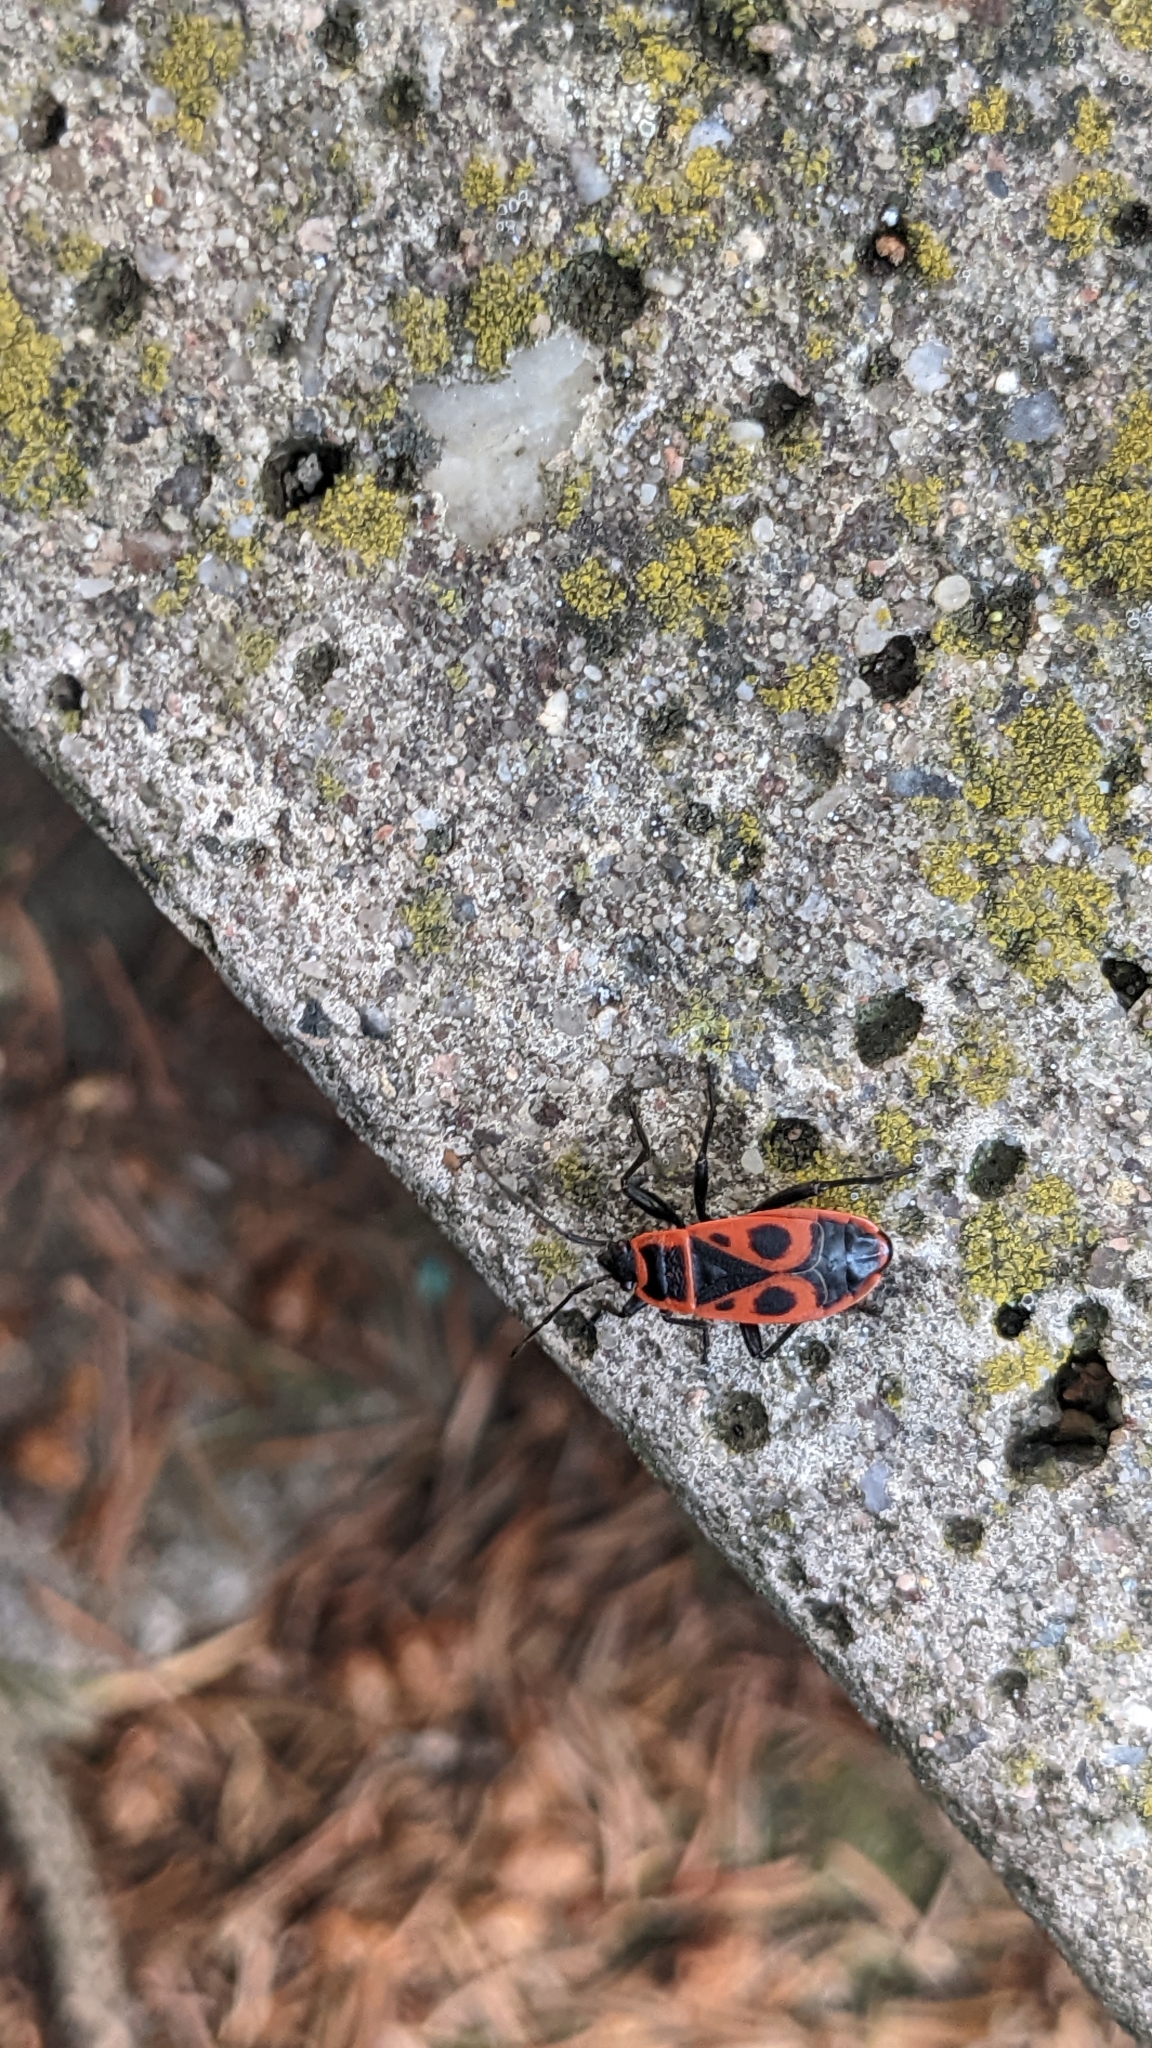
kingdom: Animalia
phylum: Arthropoda
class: Insecta
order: Hemiptera
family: Pyrrhocoridae
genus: Pyrrhocoris
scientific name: Pyrrhocoris apterus
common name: Firebug
